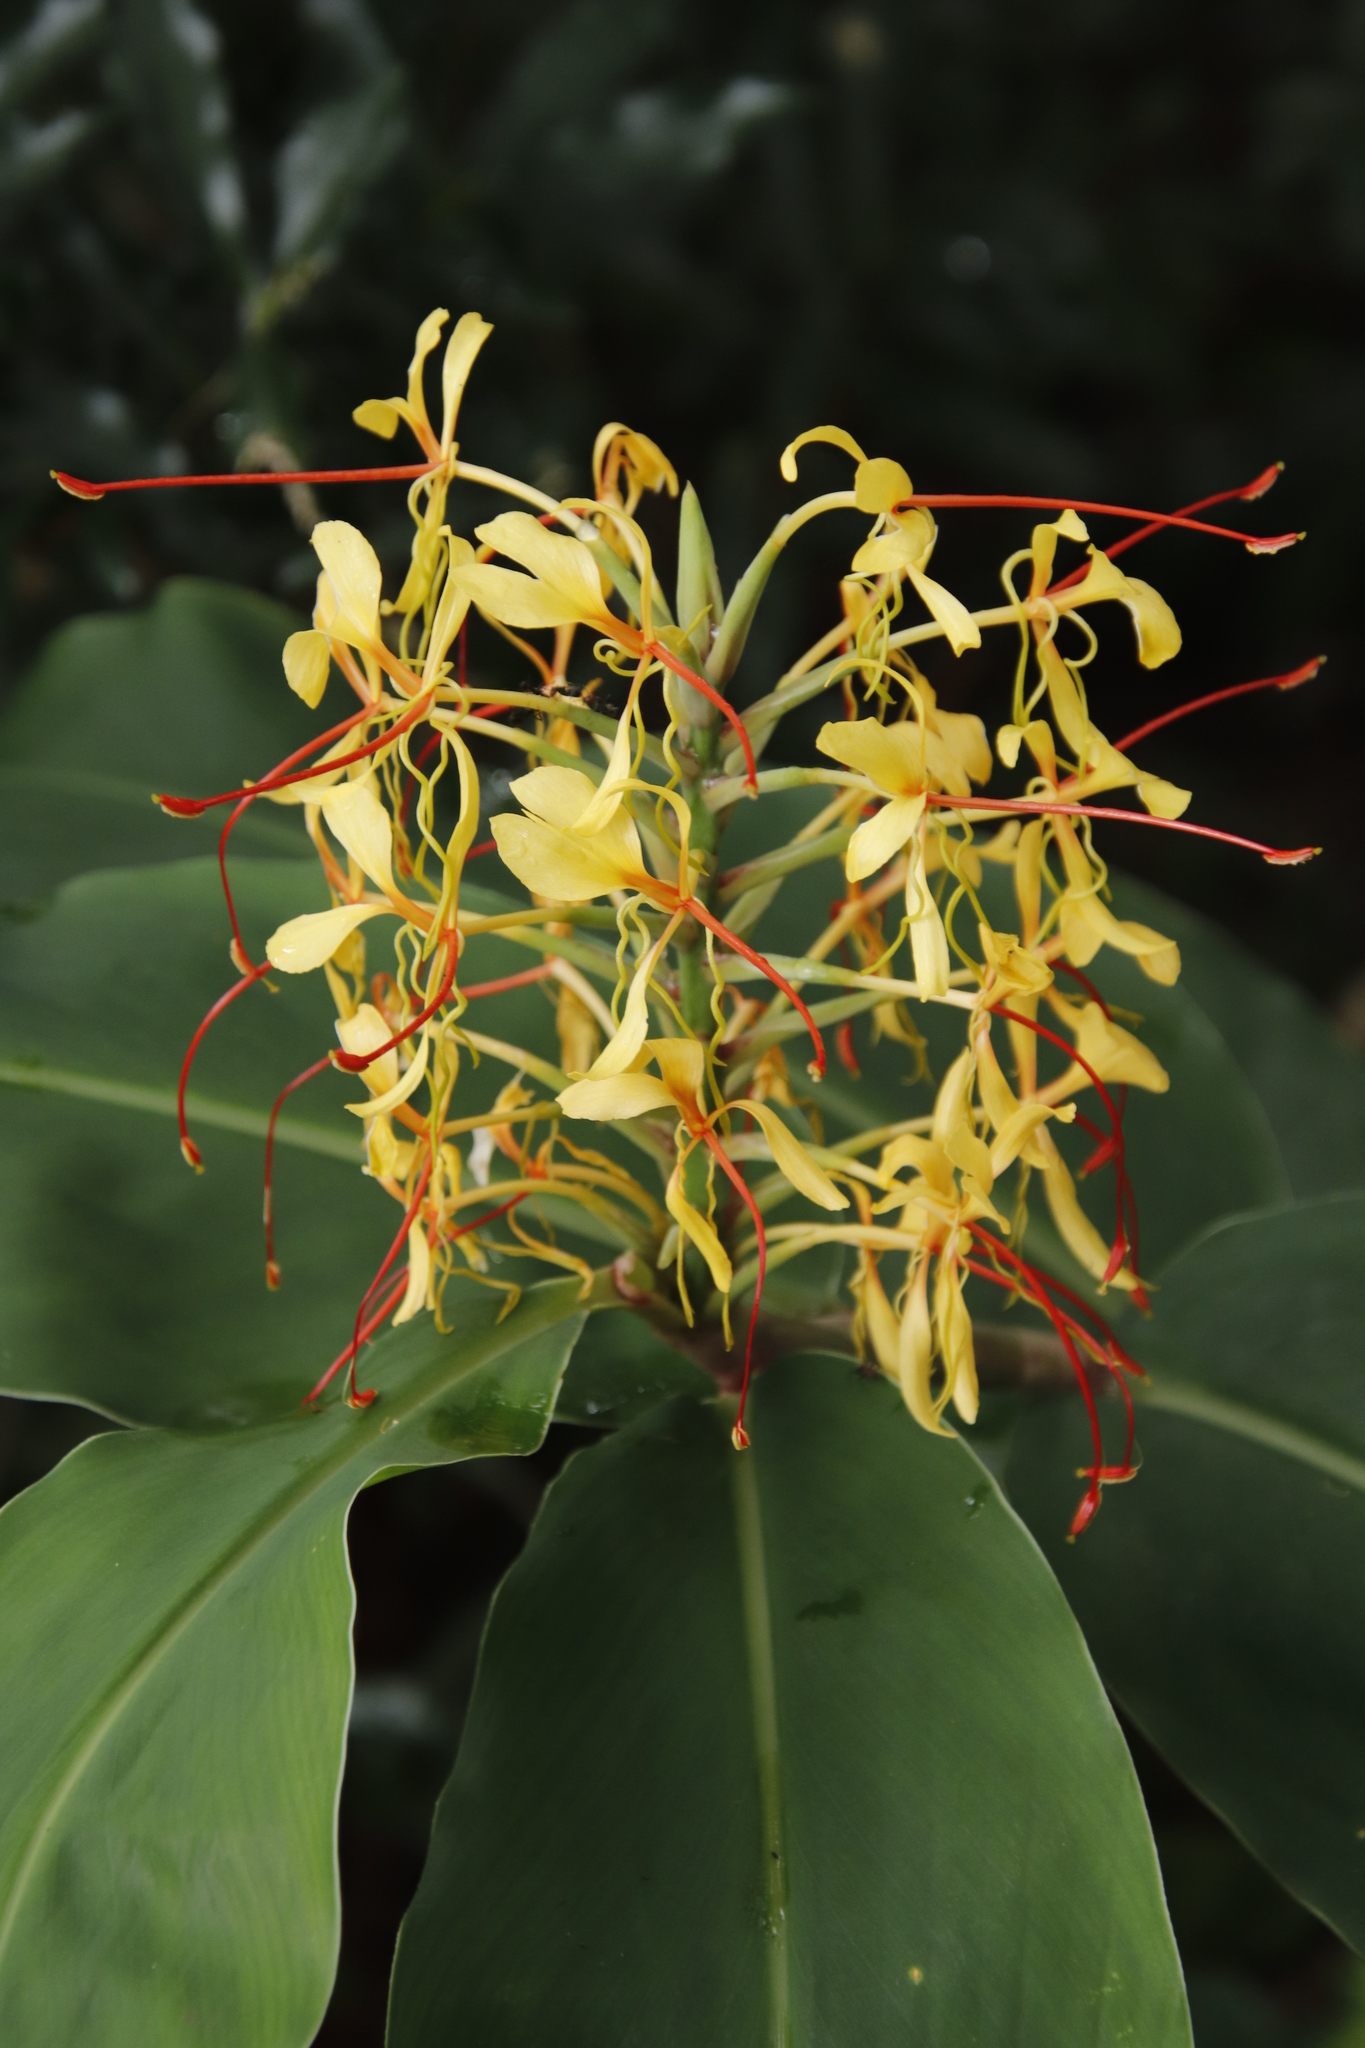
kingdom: Plantae
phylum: Tracheophyta
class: Liliopsida
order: Zingiberales
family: Zingiberaceae
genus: Hedychium
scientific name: Hedychium gardnerianum
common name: Himalayan ginger
